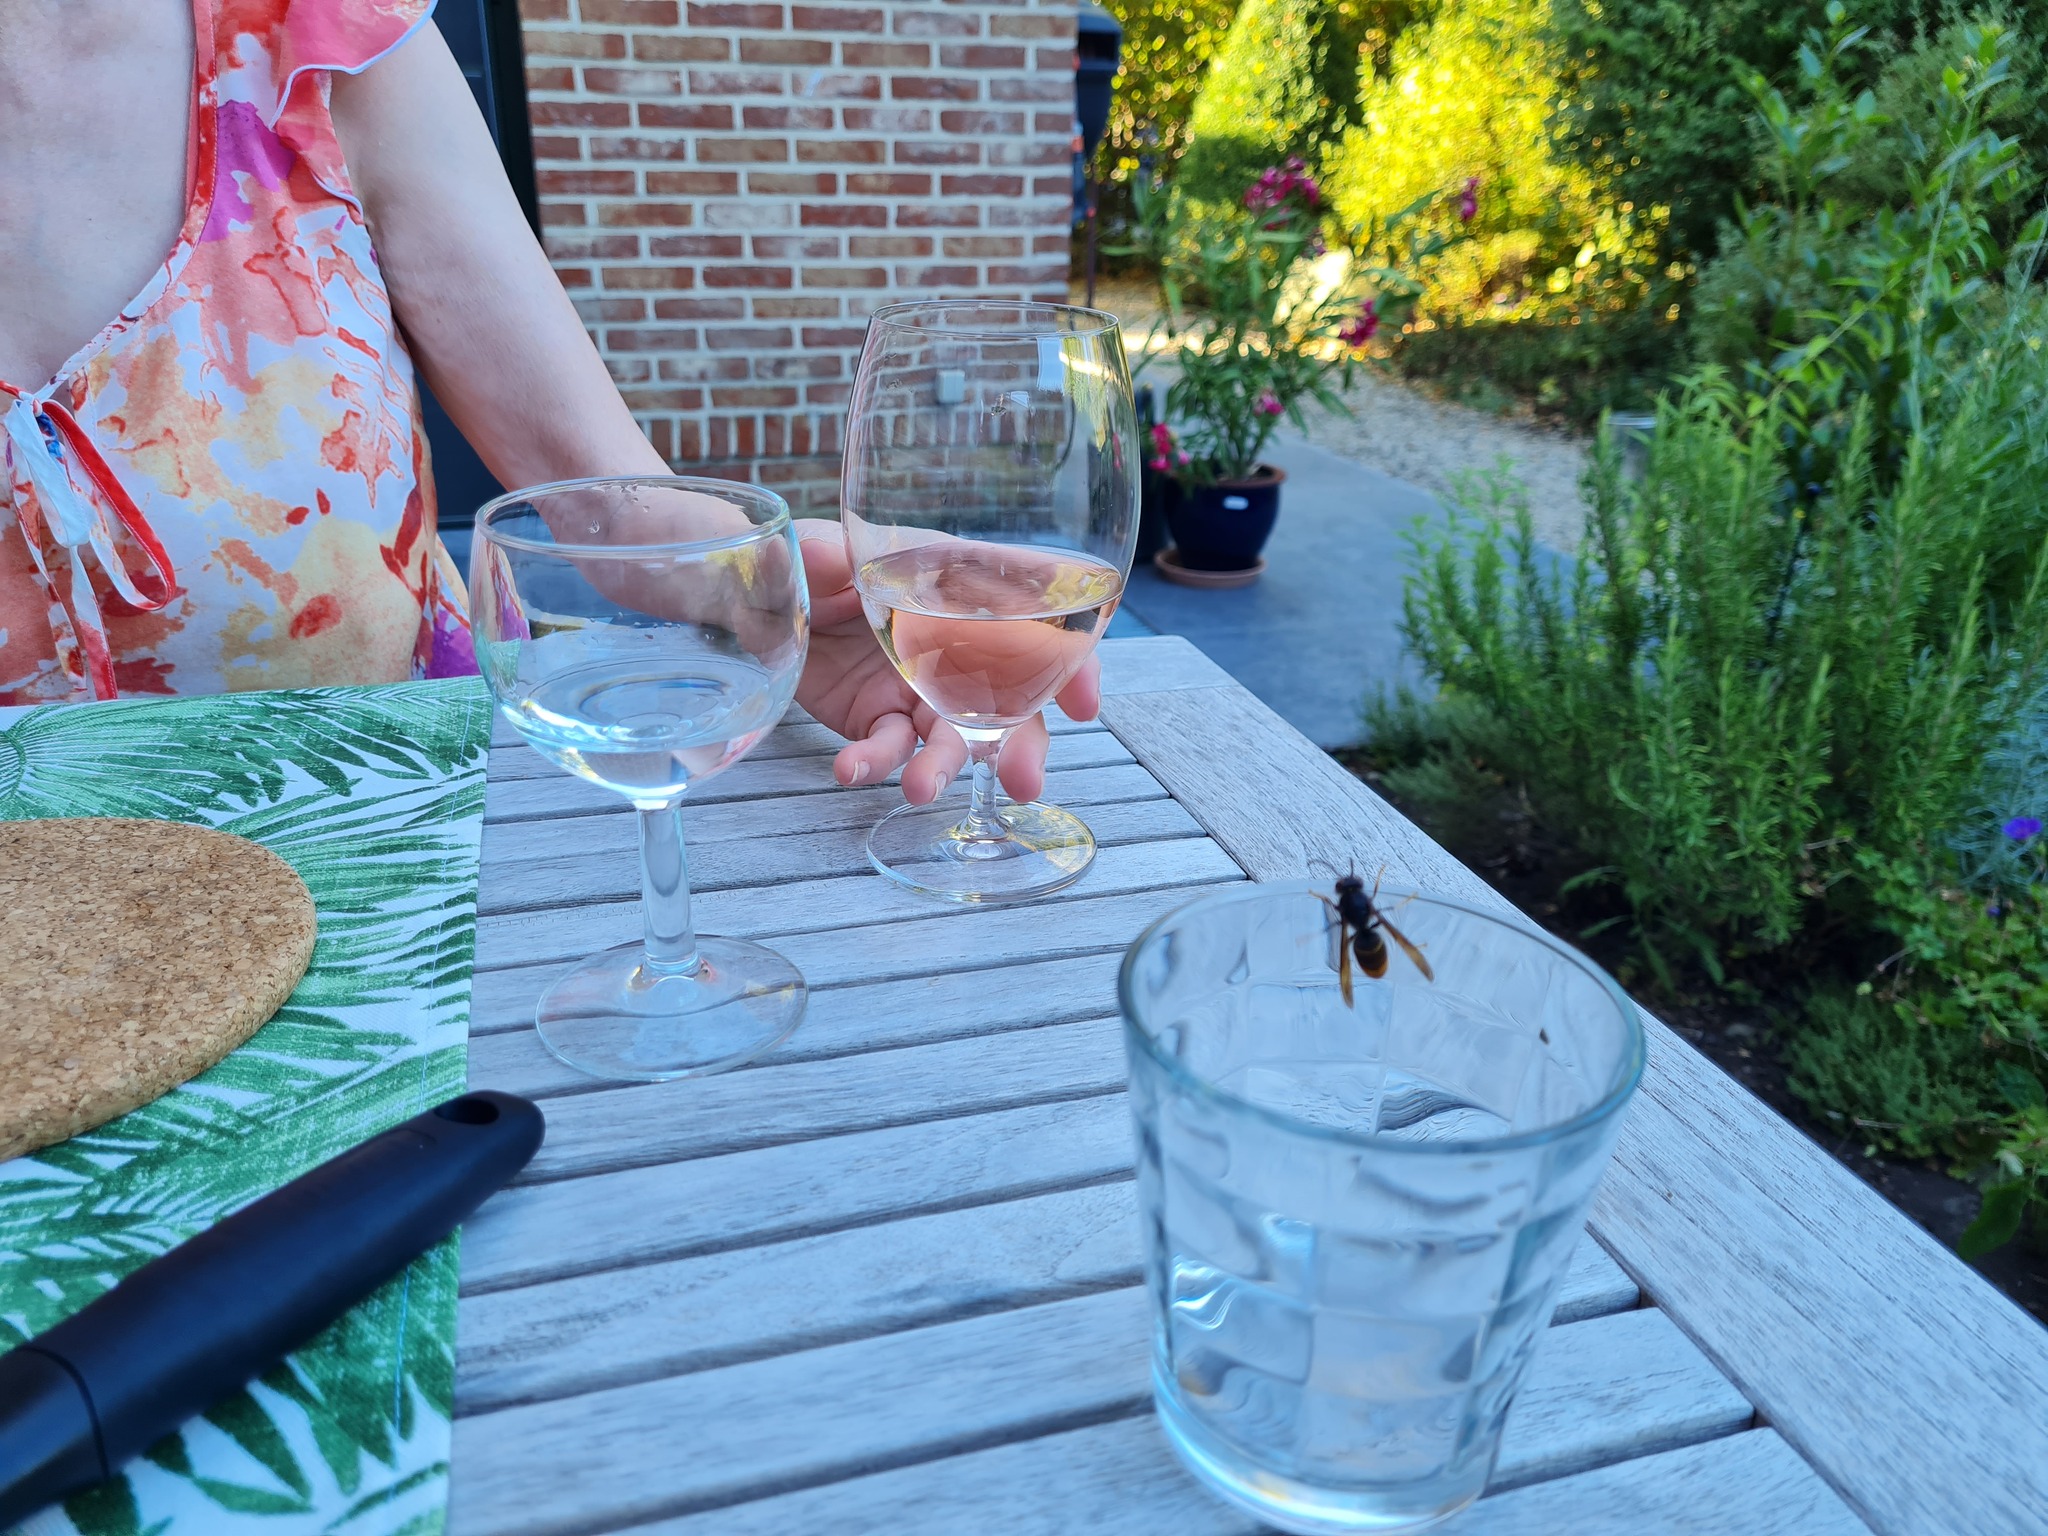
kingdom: Animalia
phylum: Arthropoda
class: Insecta
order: Hymenoptera
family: Vespidae
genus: Vespa
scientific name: Vespa velutina
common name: Asian hornet
